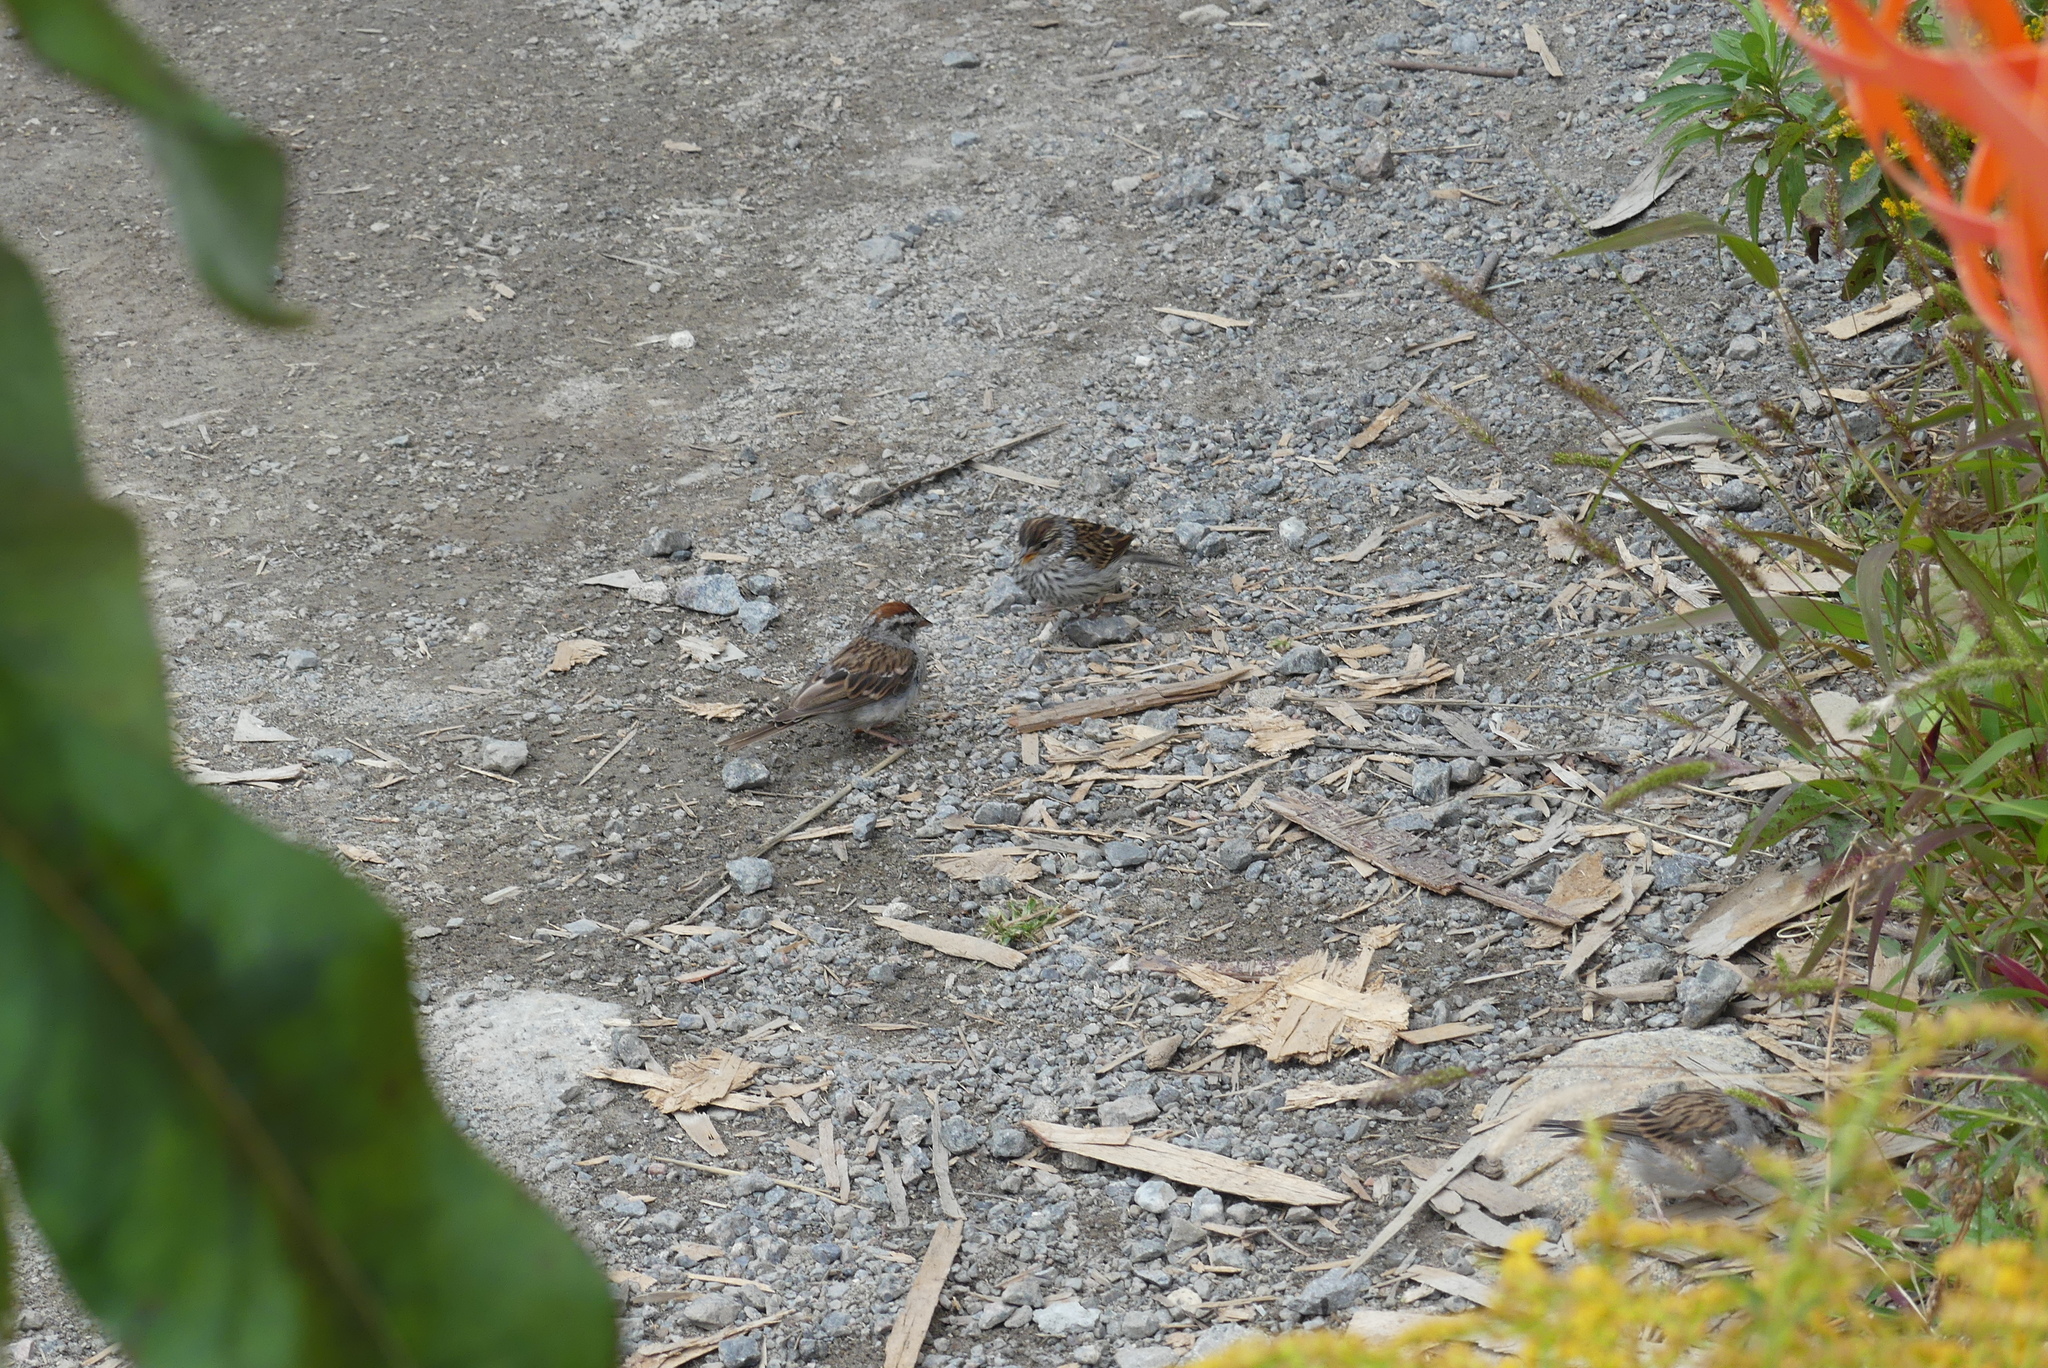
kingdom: Animalia
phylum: Chordata
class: Aves
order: Passeriformes
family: Passerellidae
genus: Spizella
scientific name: Spizella passerina
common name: Chipping sparrow
